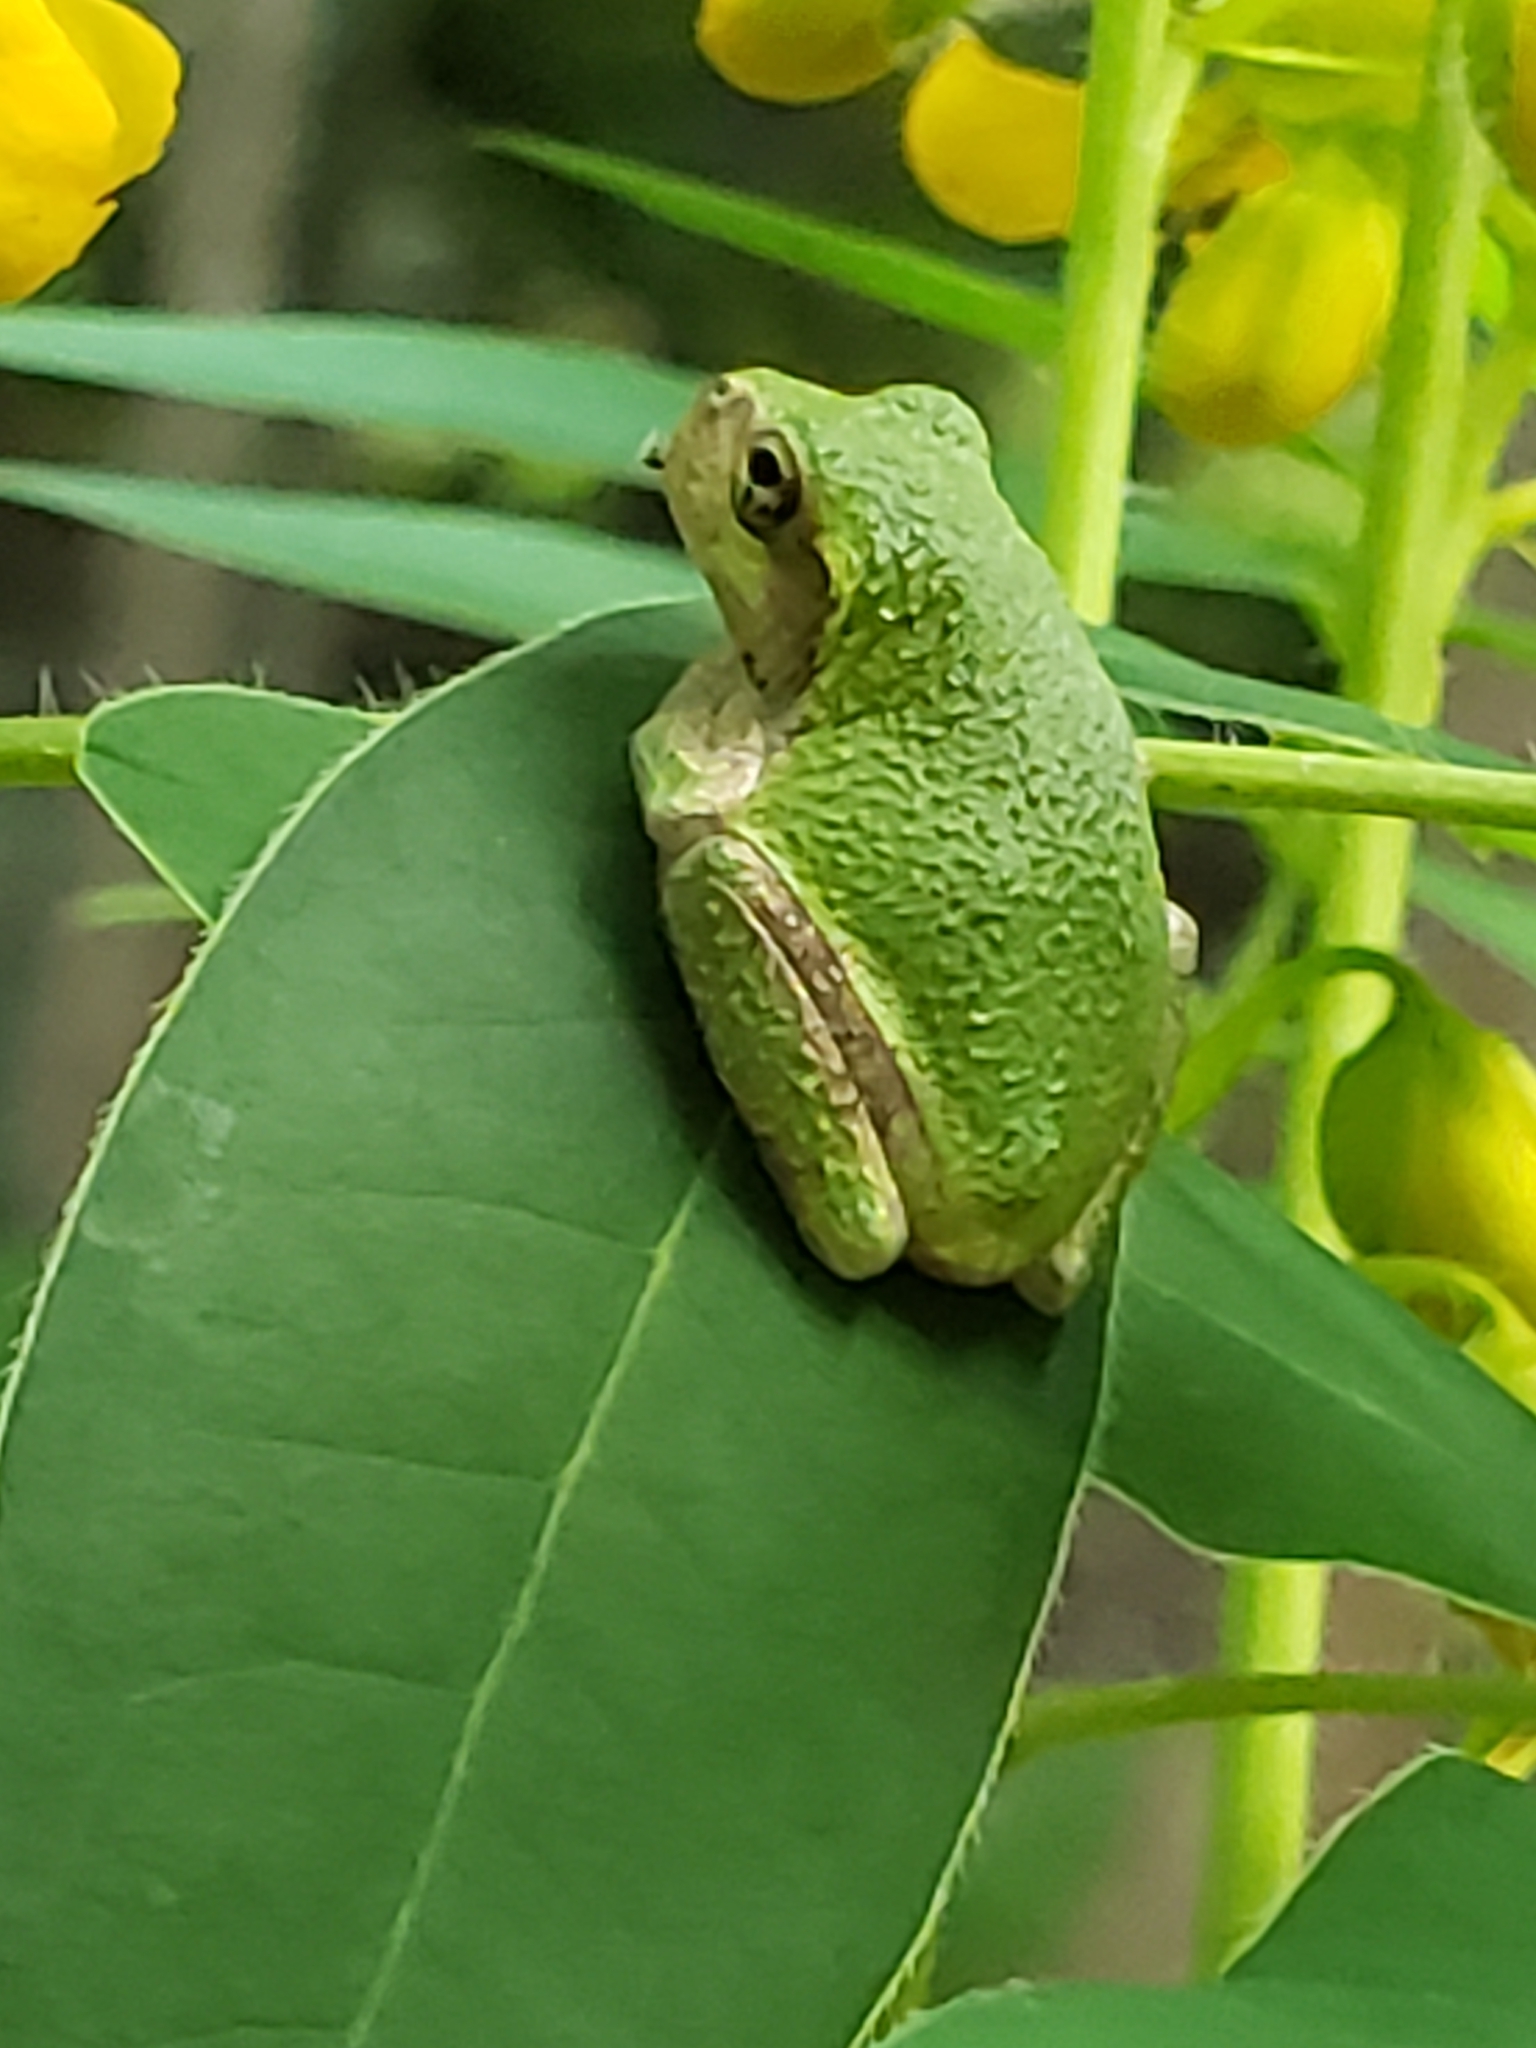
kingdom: Animalia
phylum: Chordata
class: Amphibia
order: Anura
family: Hylidae
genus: Hyla
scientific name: Hyla
